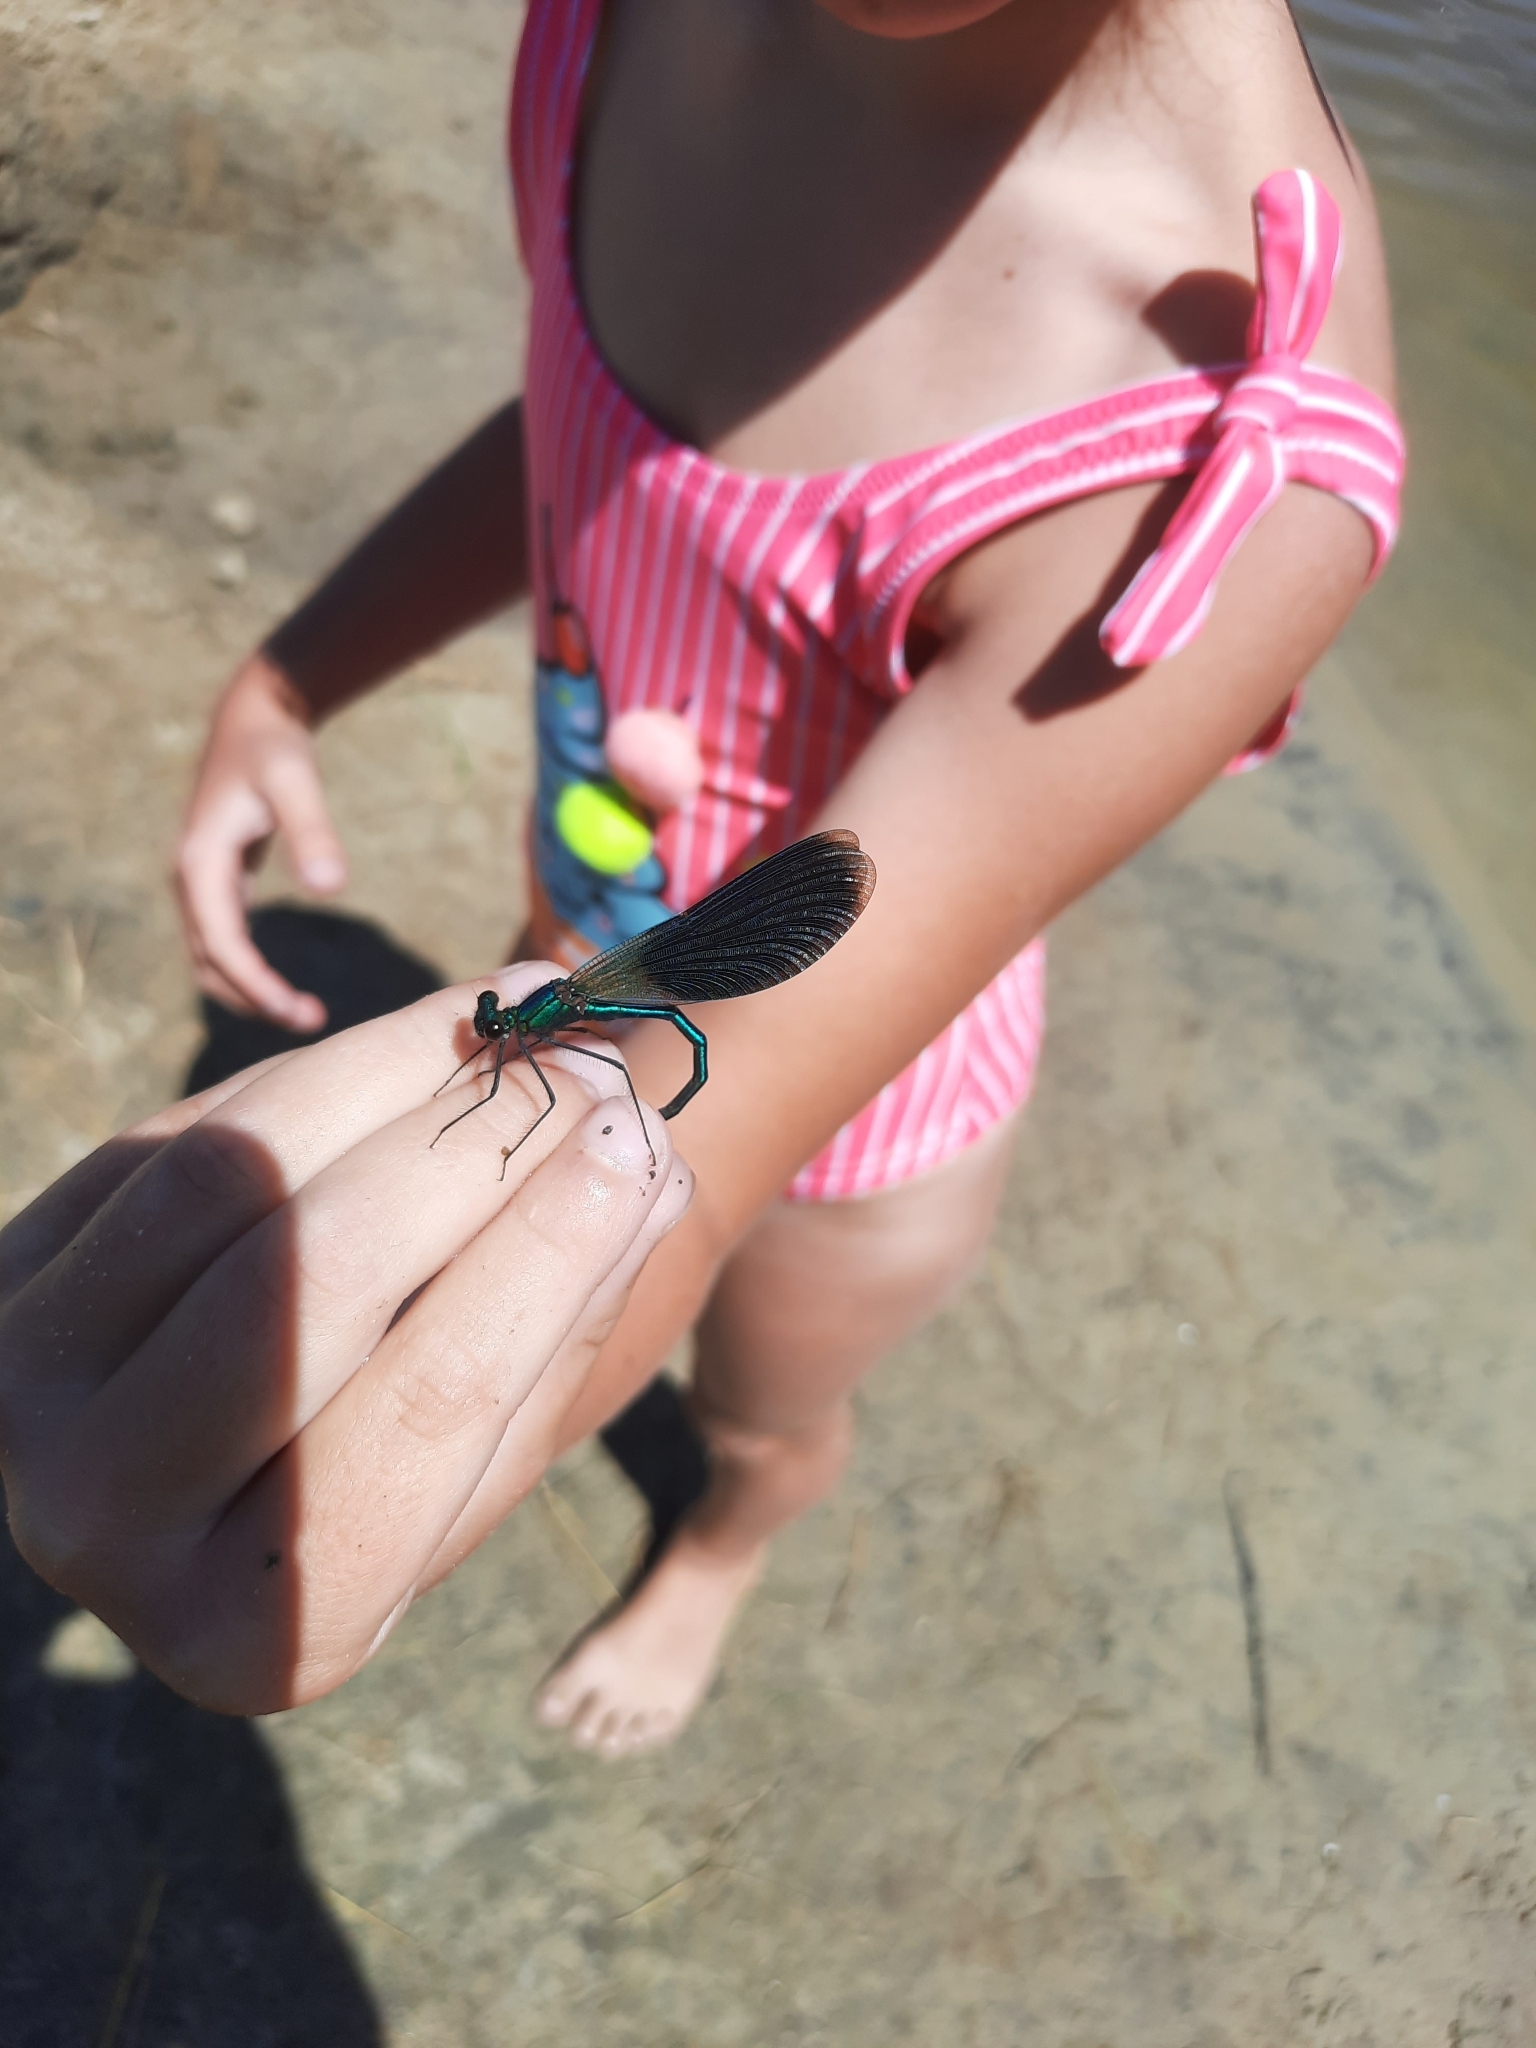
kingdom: Animalia
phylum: Arthropoda
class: Insecta
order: Odonata
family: Calopterygidae
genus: Calopteryx
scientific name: Calopteryx splendens
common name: Banded demoiselle
